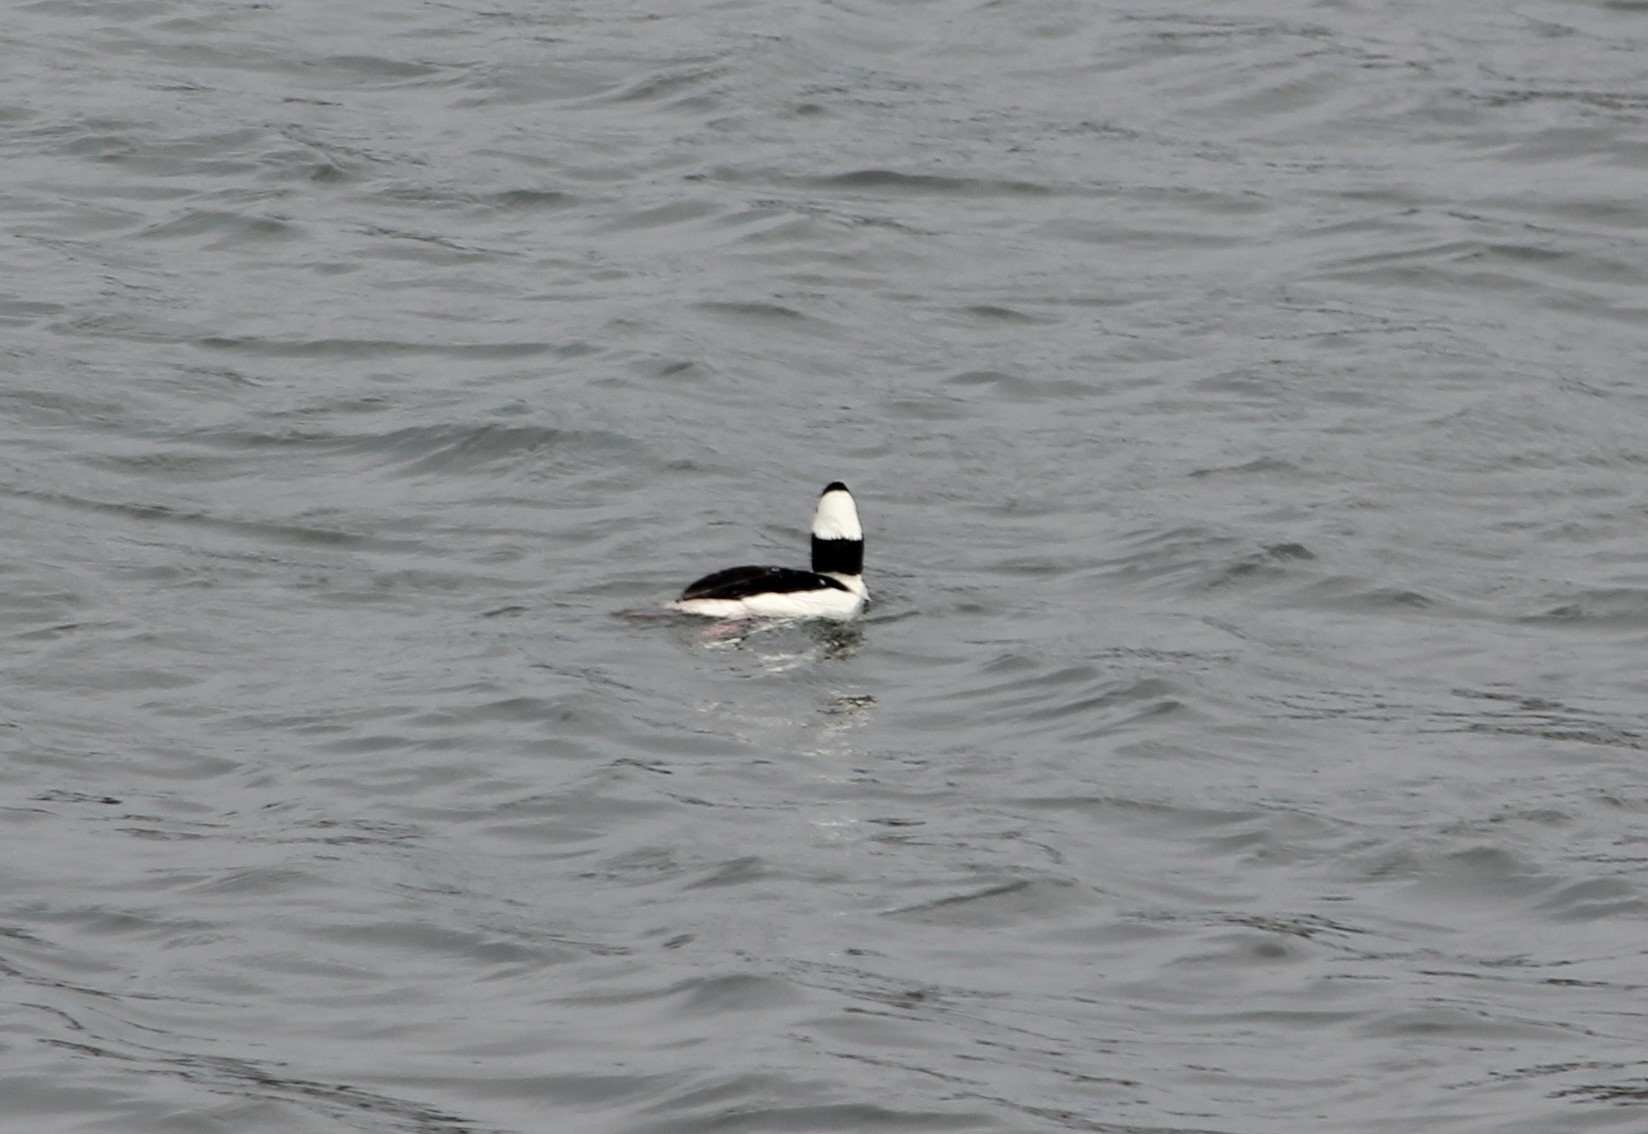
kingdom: Animalia
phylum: Chordata
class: Aves
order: Anseriformes
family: Anatidae
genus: Bucephala
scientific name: Bucephala albeola
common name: Bufflehead
